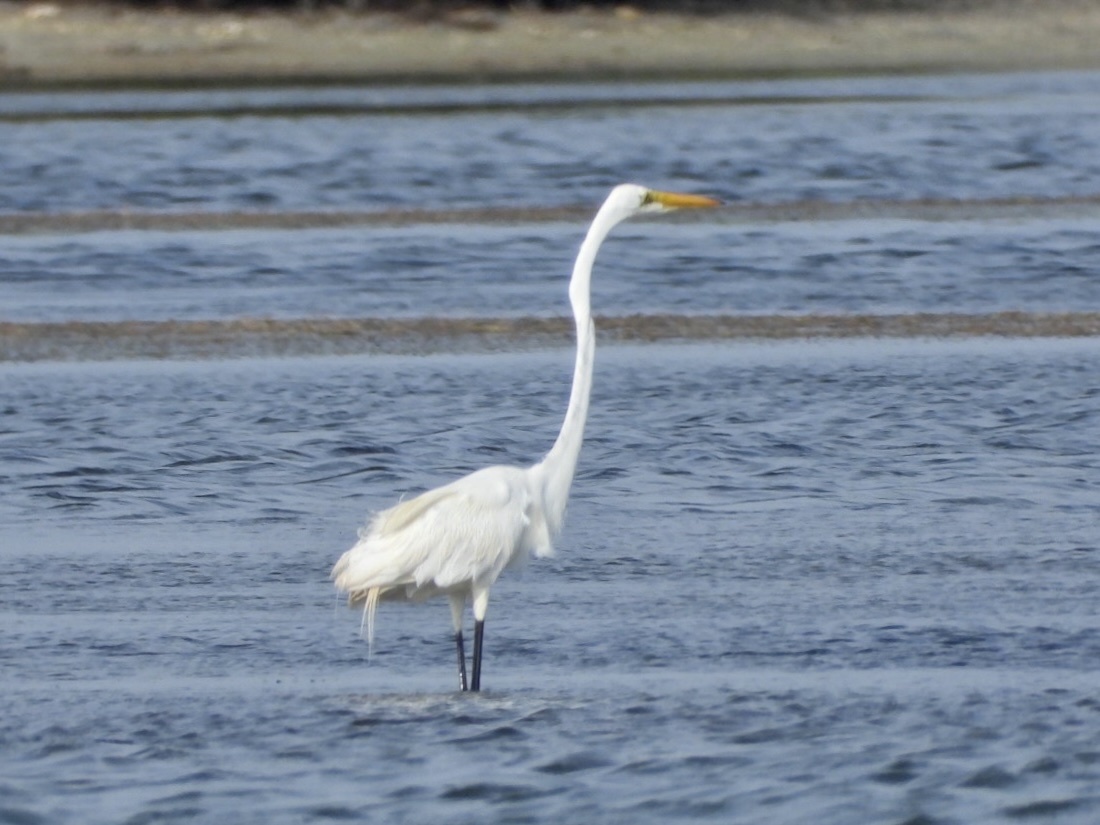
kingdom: Animalia
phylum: Chordata
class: Aves
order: Pelecaniformes
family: Ardeidae
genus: Ardea
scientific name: Ardea alba
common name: Great egret
